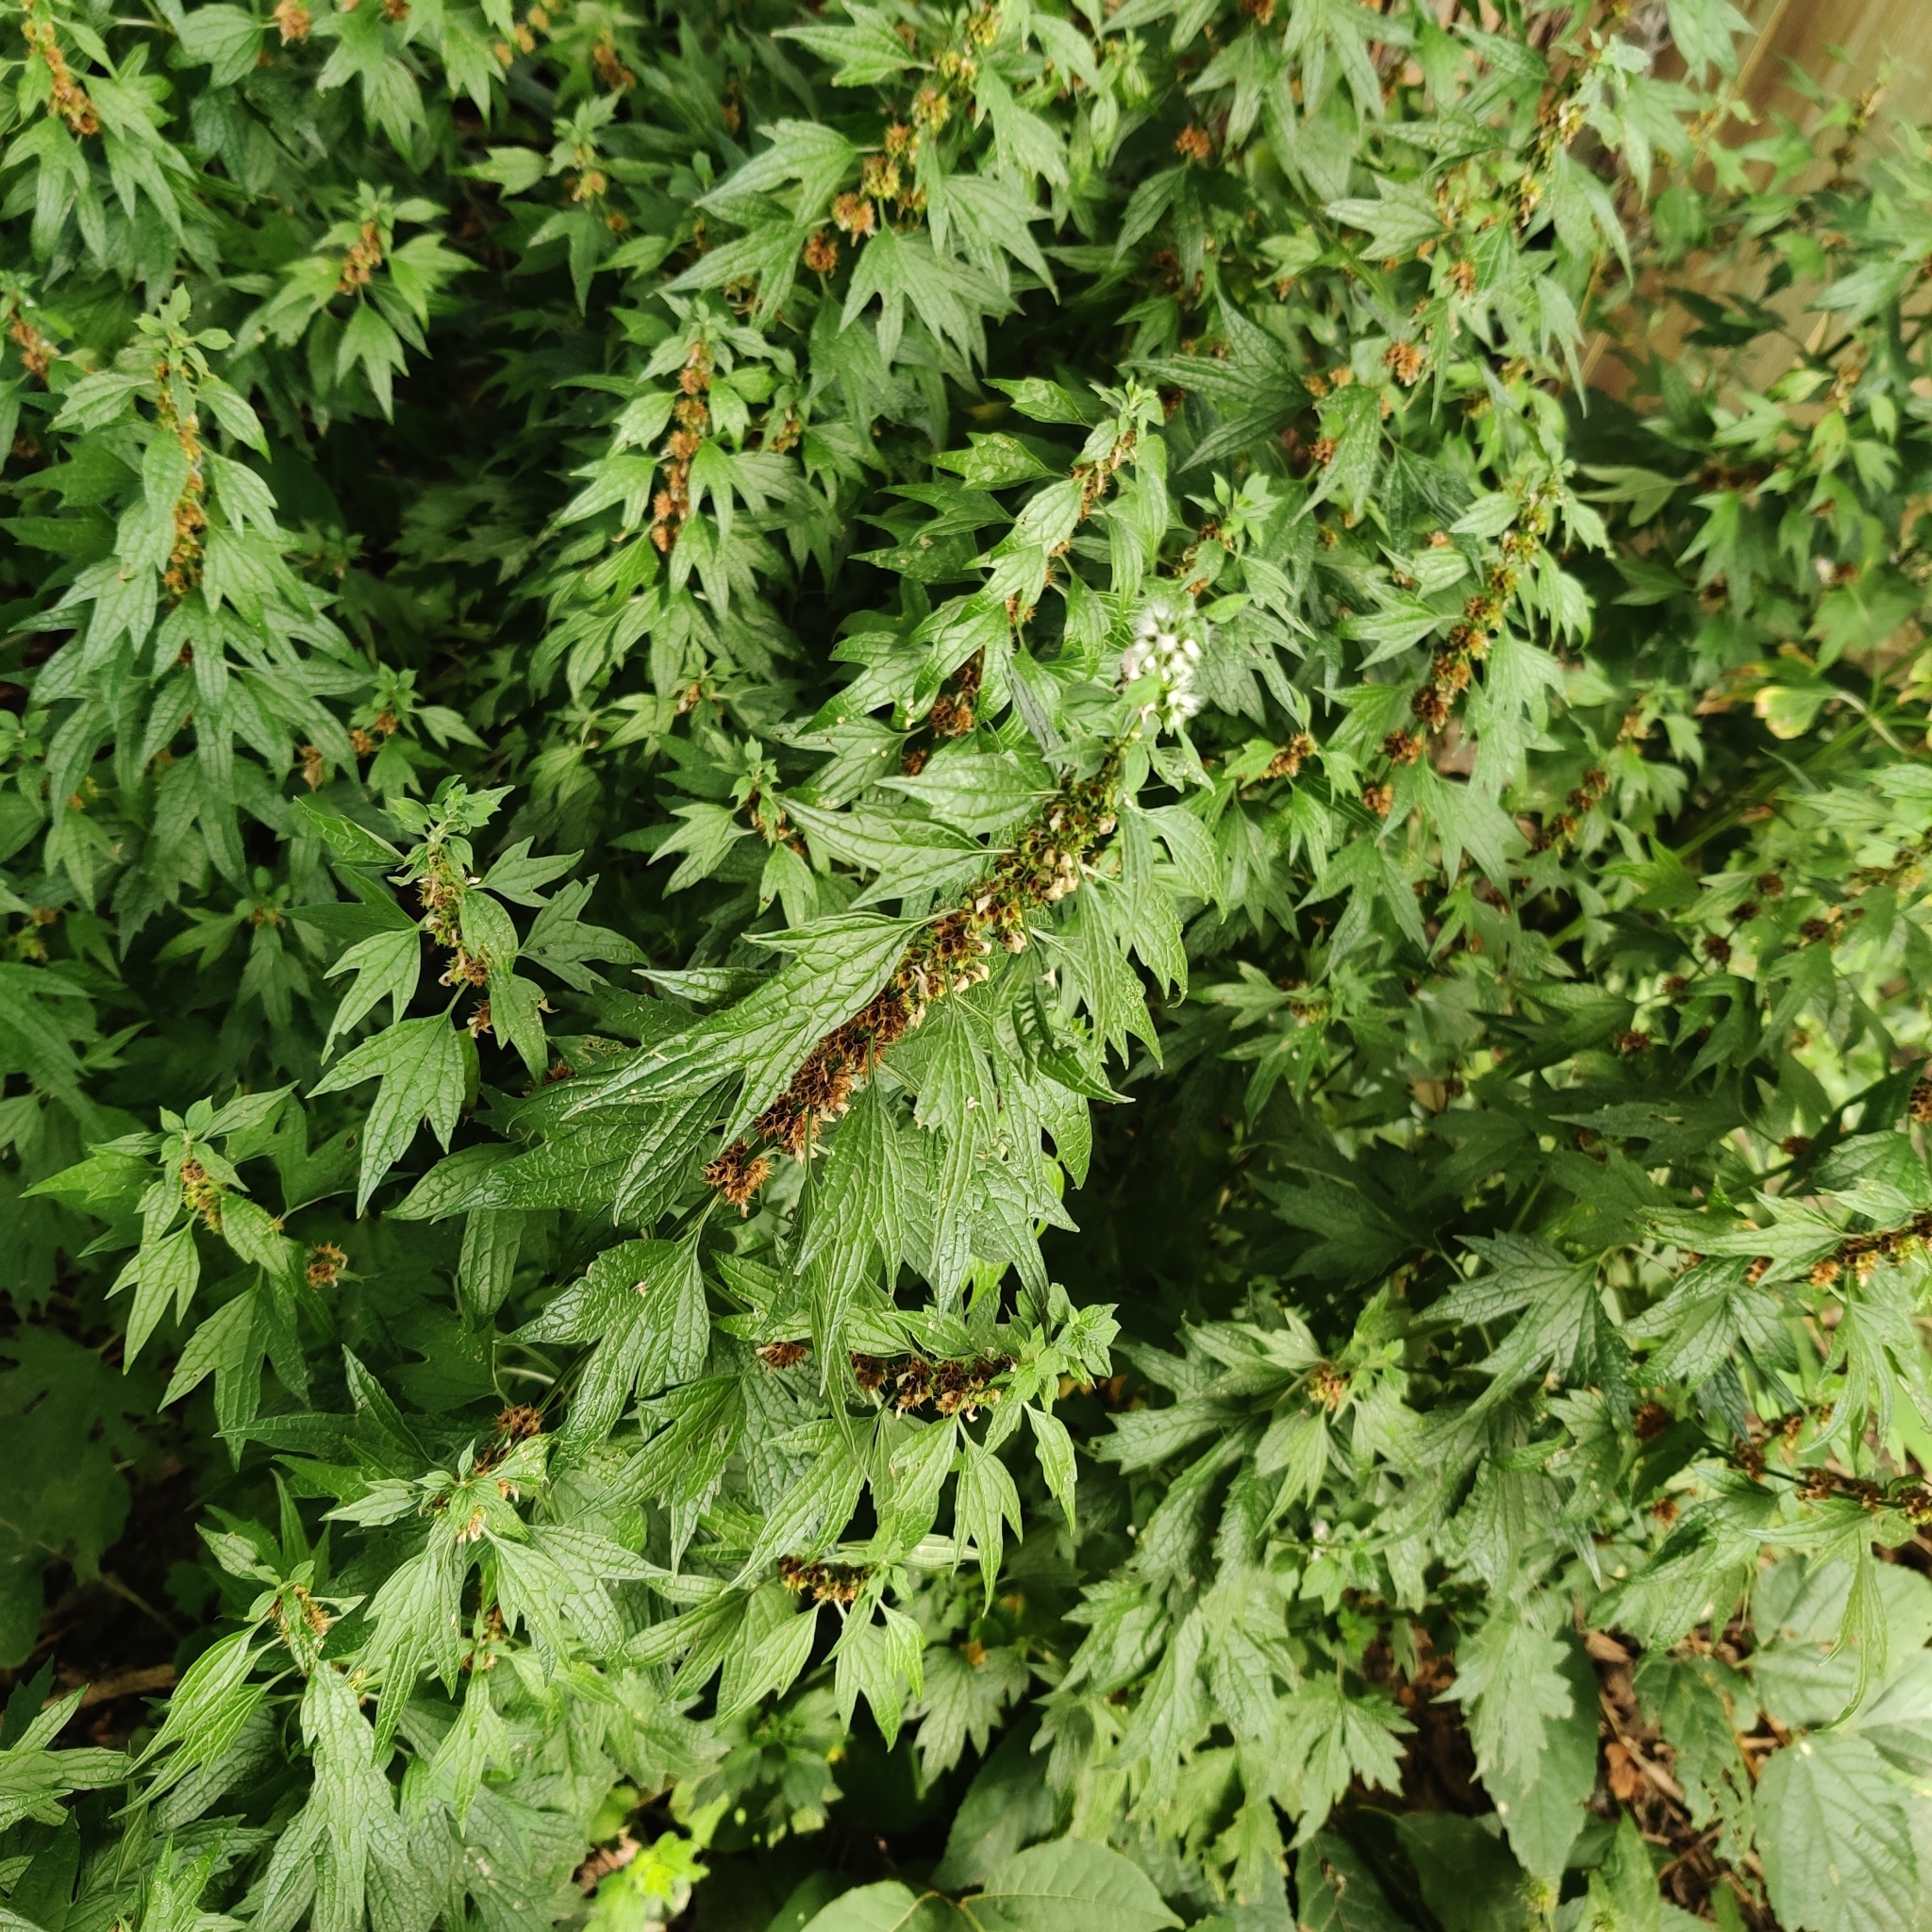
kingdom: Plantae
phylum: Tracheophyta
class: Magnoliopsida
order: Lamiales
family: Lamiaceae
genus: Leonurus
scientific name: Leonurus cardiaca
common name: Motherwort
